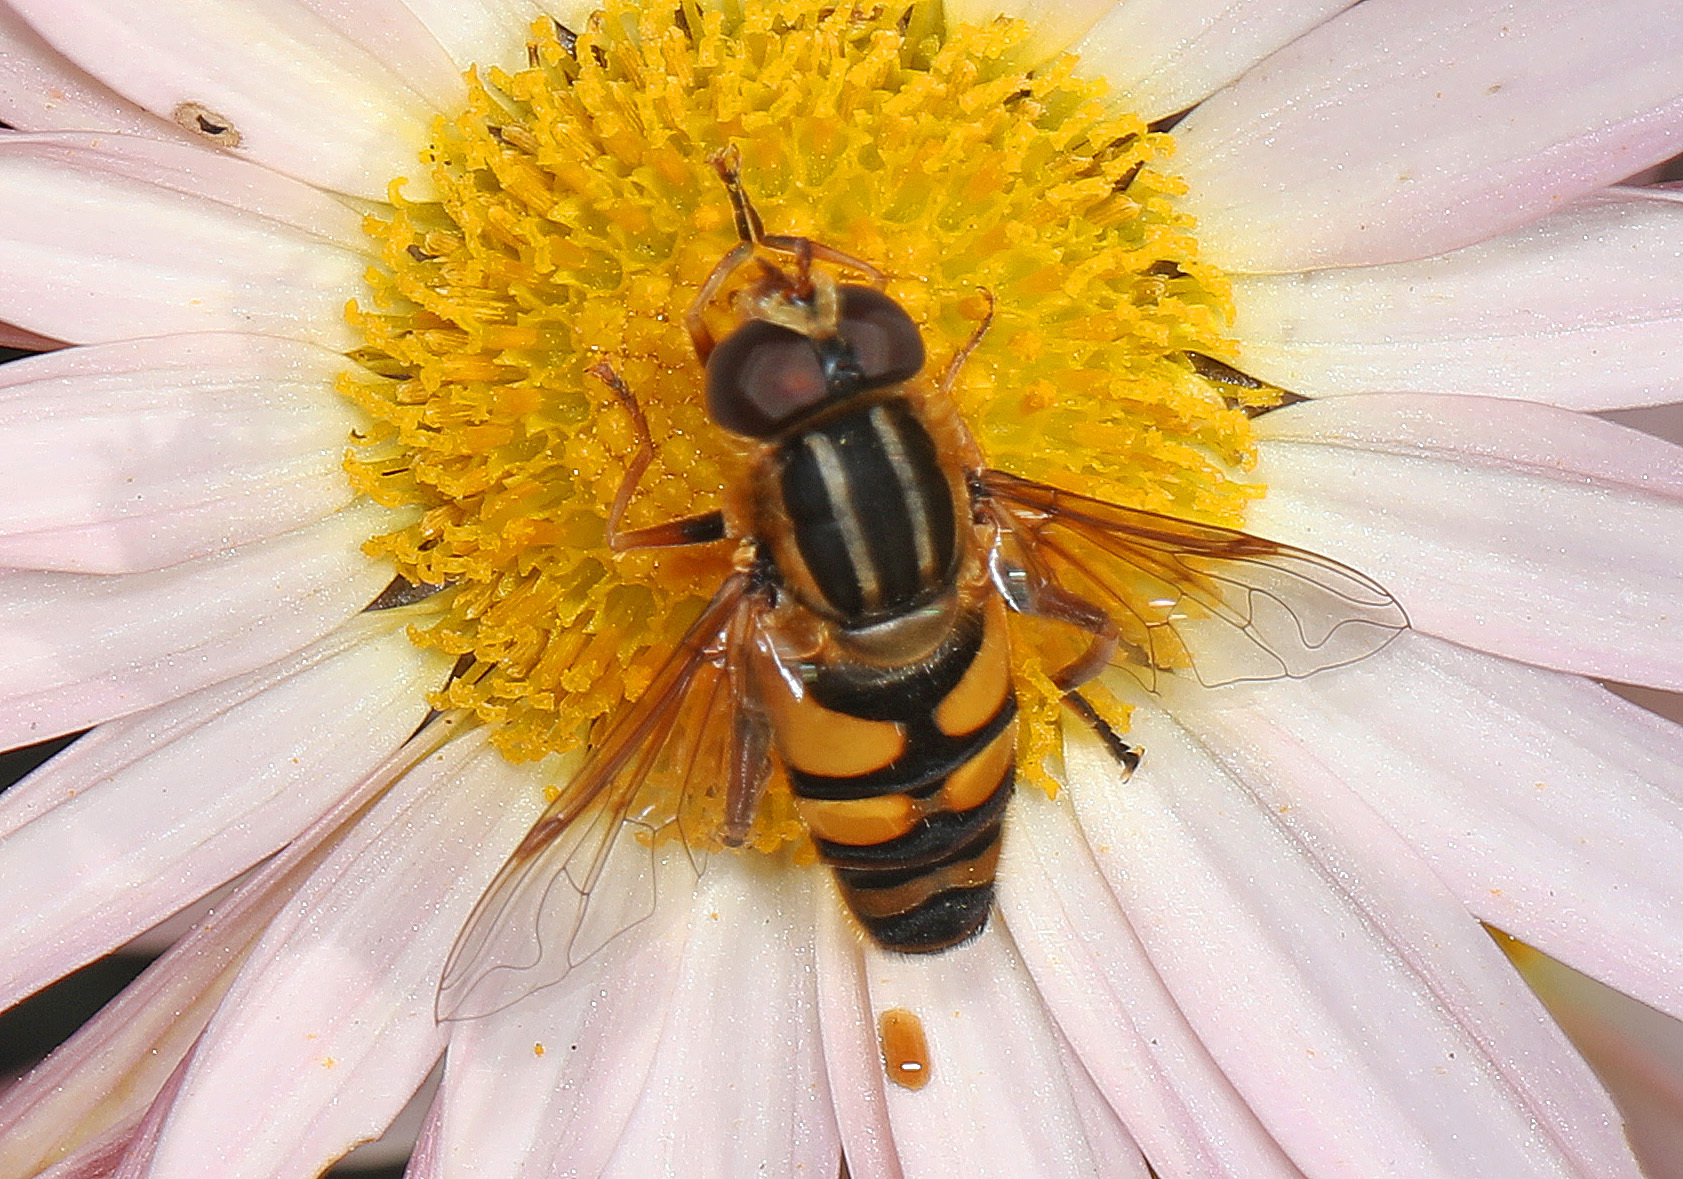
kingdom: Animalia
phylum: Arthropoda
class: Insecta
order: Diptera
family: Syrphidae
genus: Helophilus
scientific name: Helophilus fasciatus
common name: Narrow-headed marsh fly
